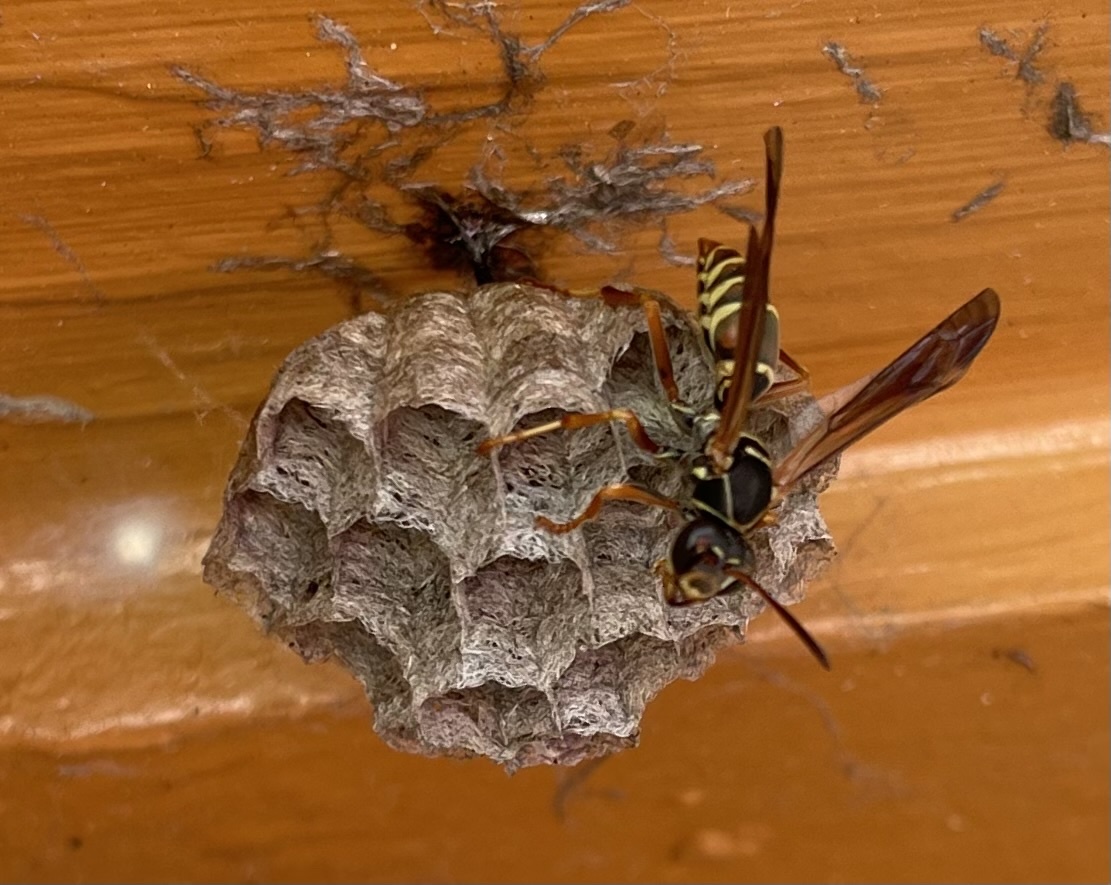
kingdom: Animalia
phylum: Arthropoda
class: Insecta
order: Hymenoptera
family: Eumenidae
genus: Polistes
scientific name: Polistes fuscatus
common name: Dark paper wasp
